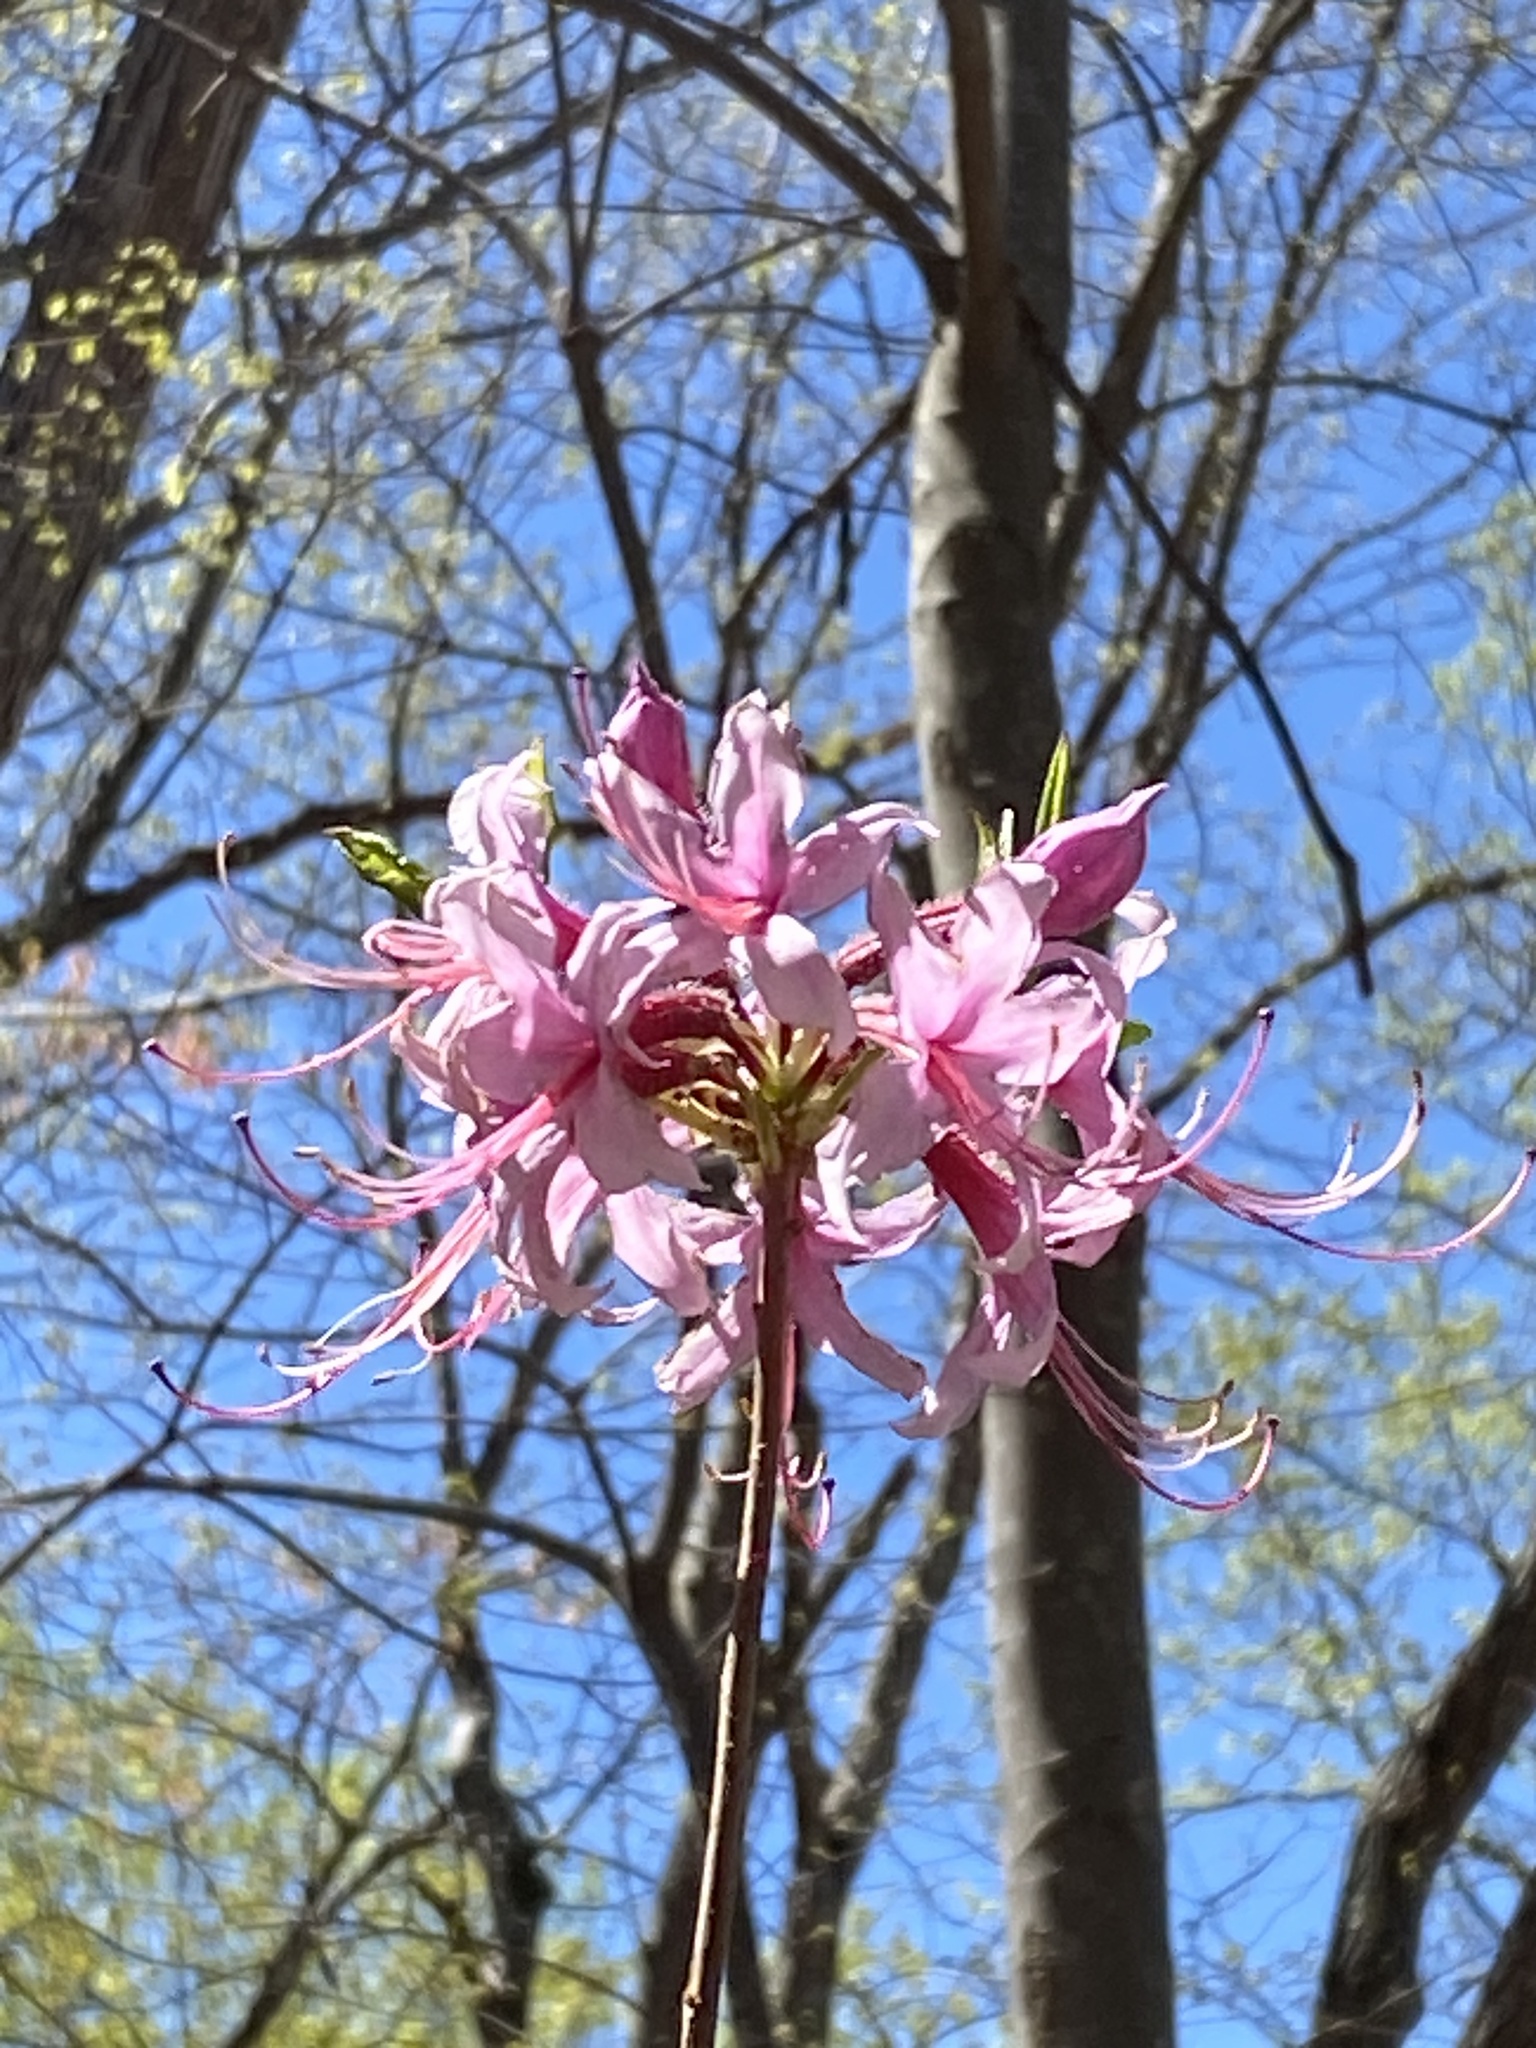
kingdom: Plantae
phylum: Tracheophyta
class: Magnoliopsida
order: Ericales
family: Ericaceae
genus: Rhododendron
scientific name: Rhododendron periclymenoides
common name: Election-pink
